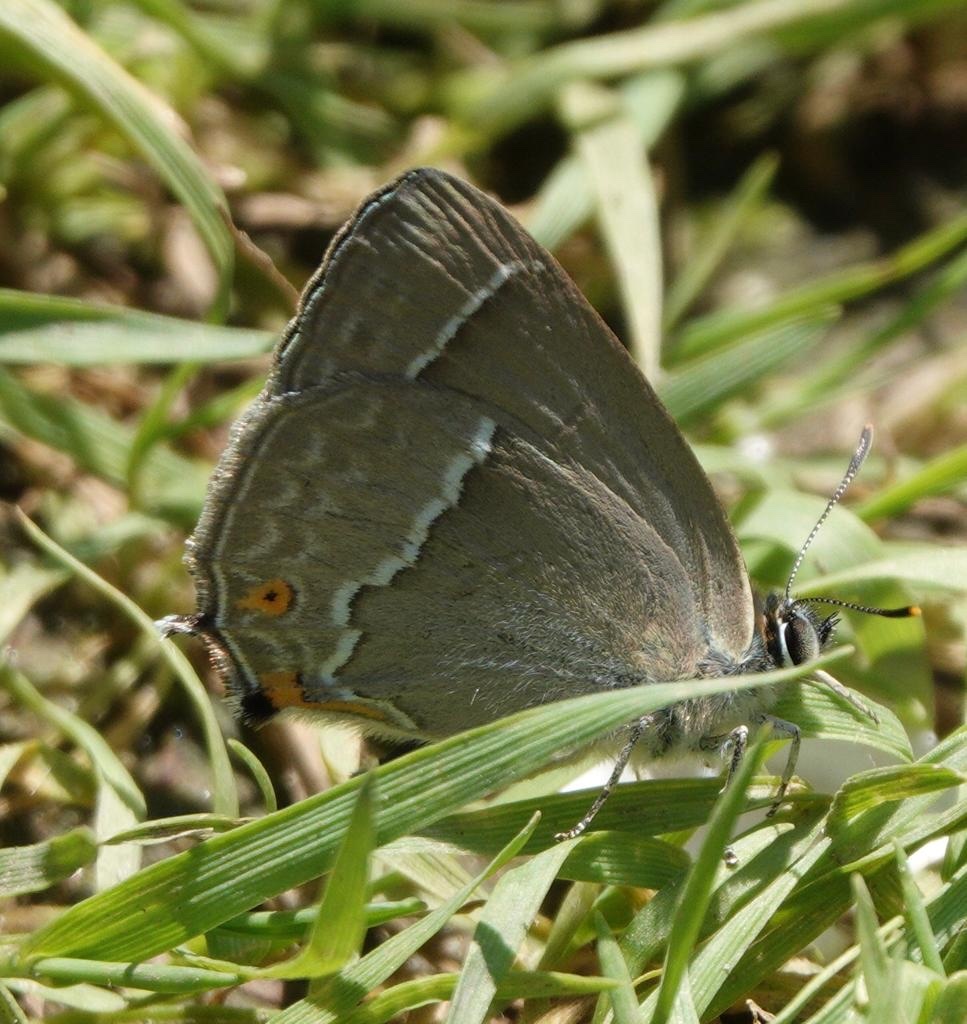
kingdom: Animalia
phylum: Arthropoda
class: Insecta
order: Lepidoptera
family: Lycaenidae
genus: Quercusia
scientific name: Quercusia quercus
